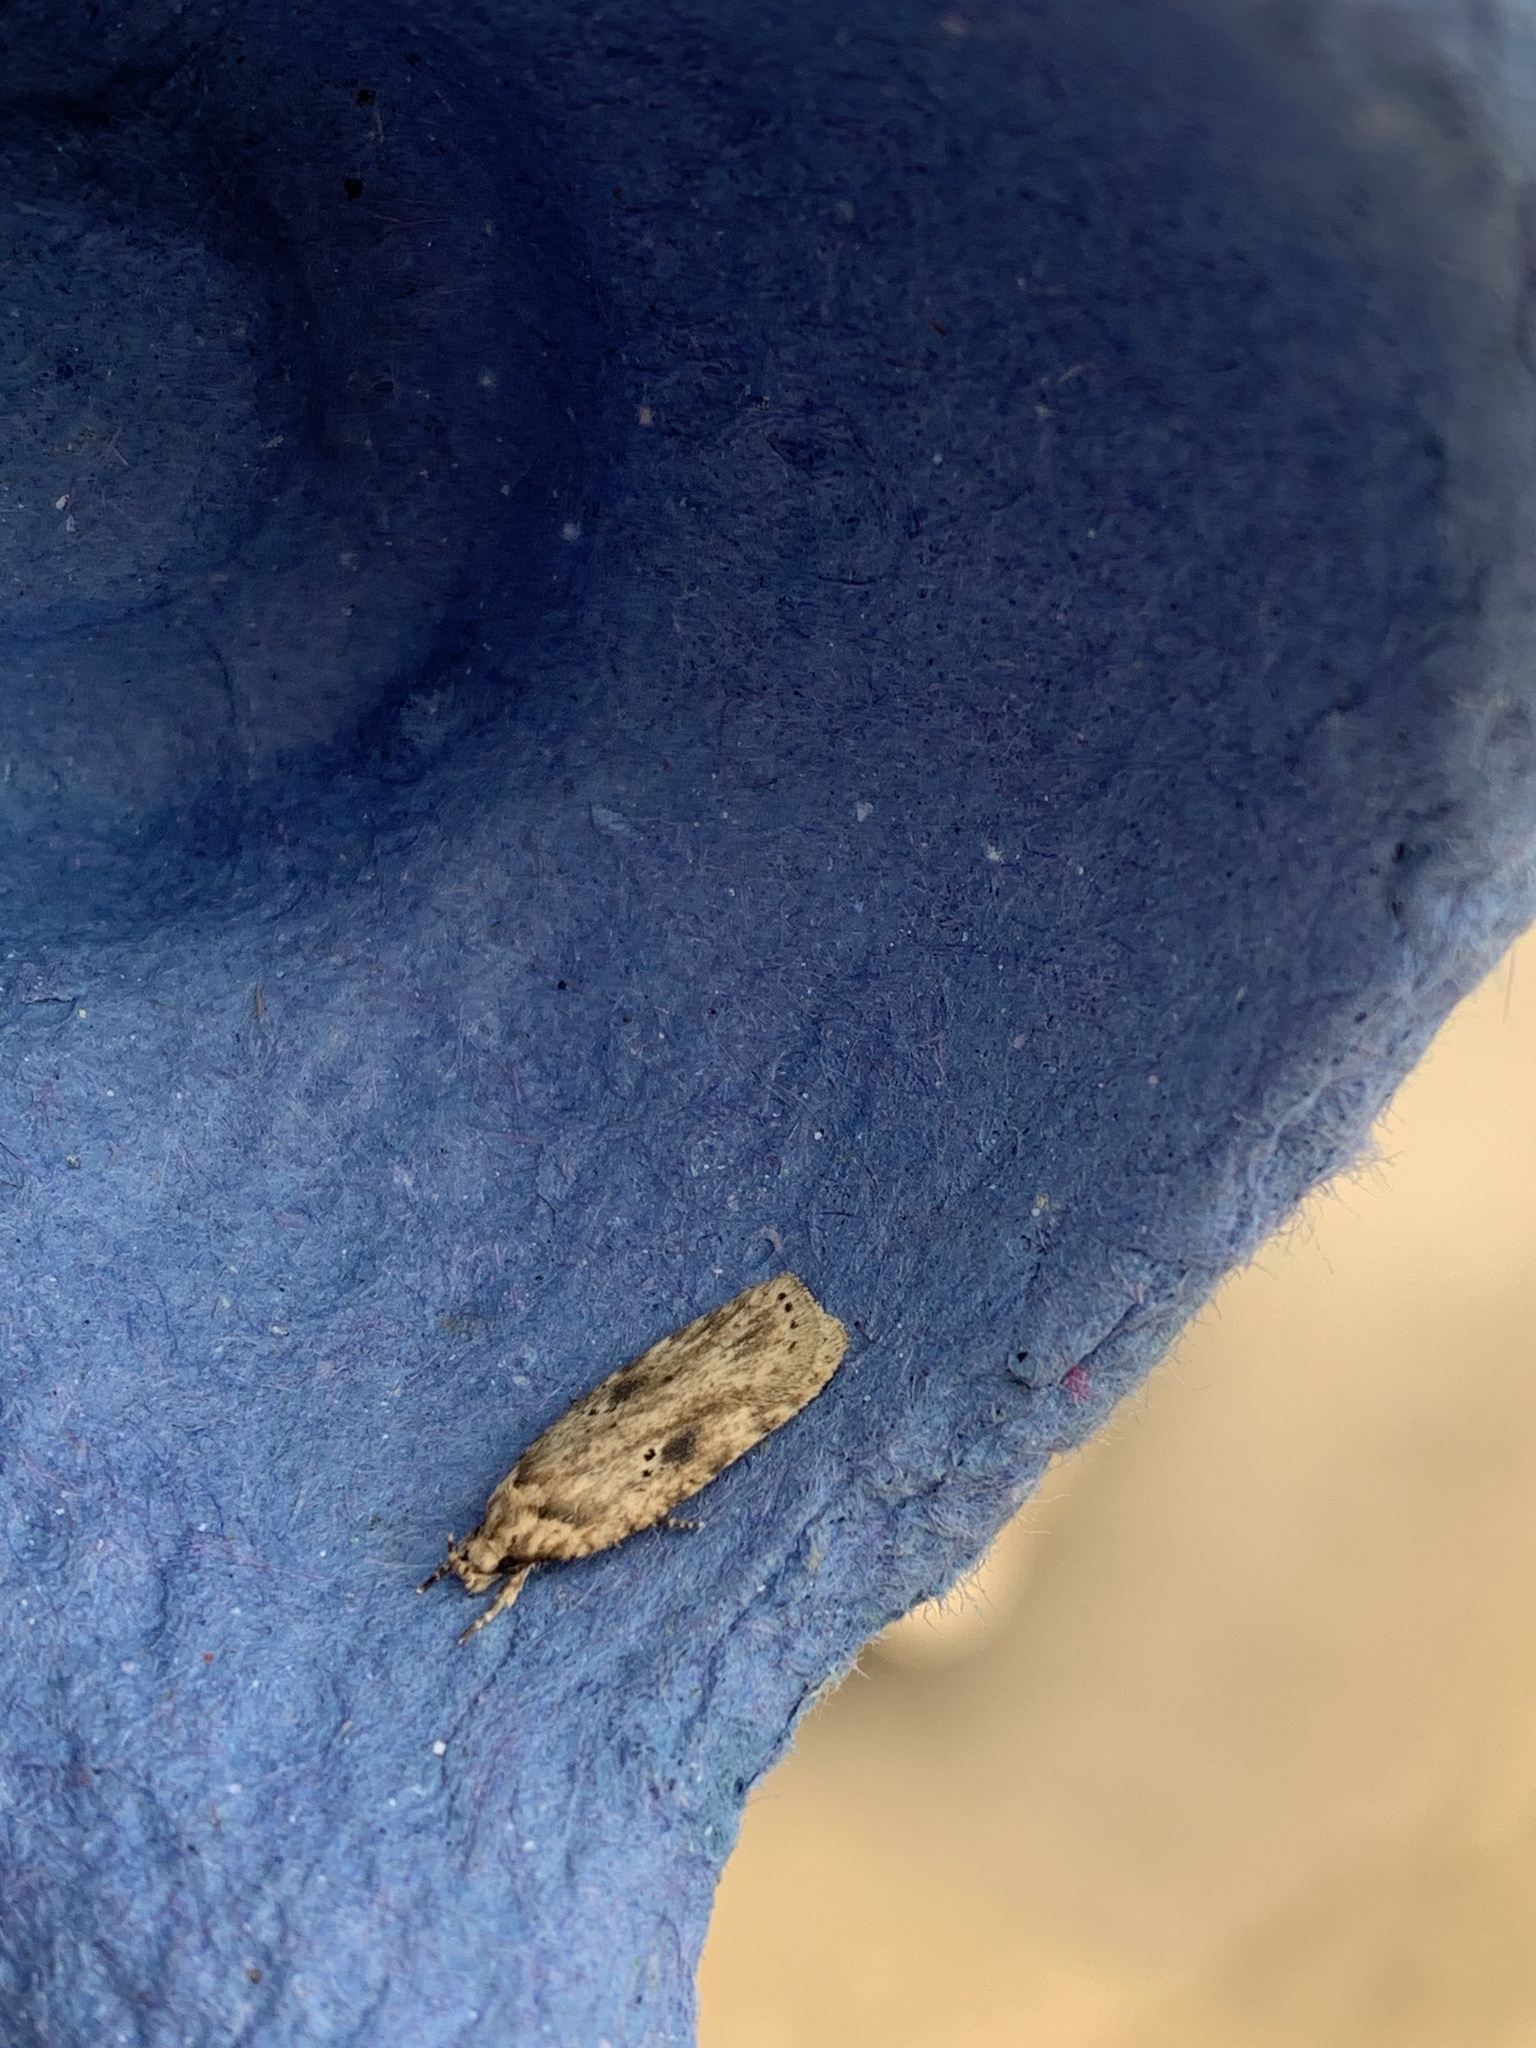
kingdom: Animalia
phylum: Arthropoda
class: Insecta
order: Lepidoptera
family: Depressariidae
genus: Agonopterix
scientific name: Agonopterix arenella
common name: Brindled flat-body
